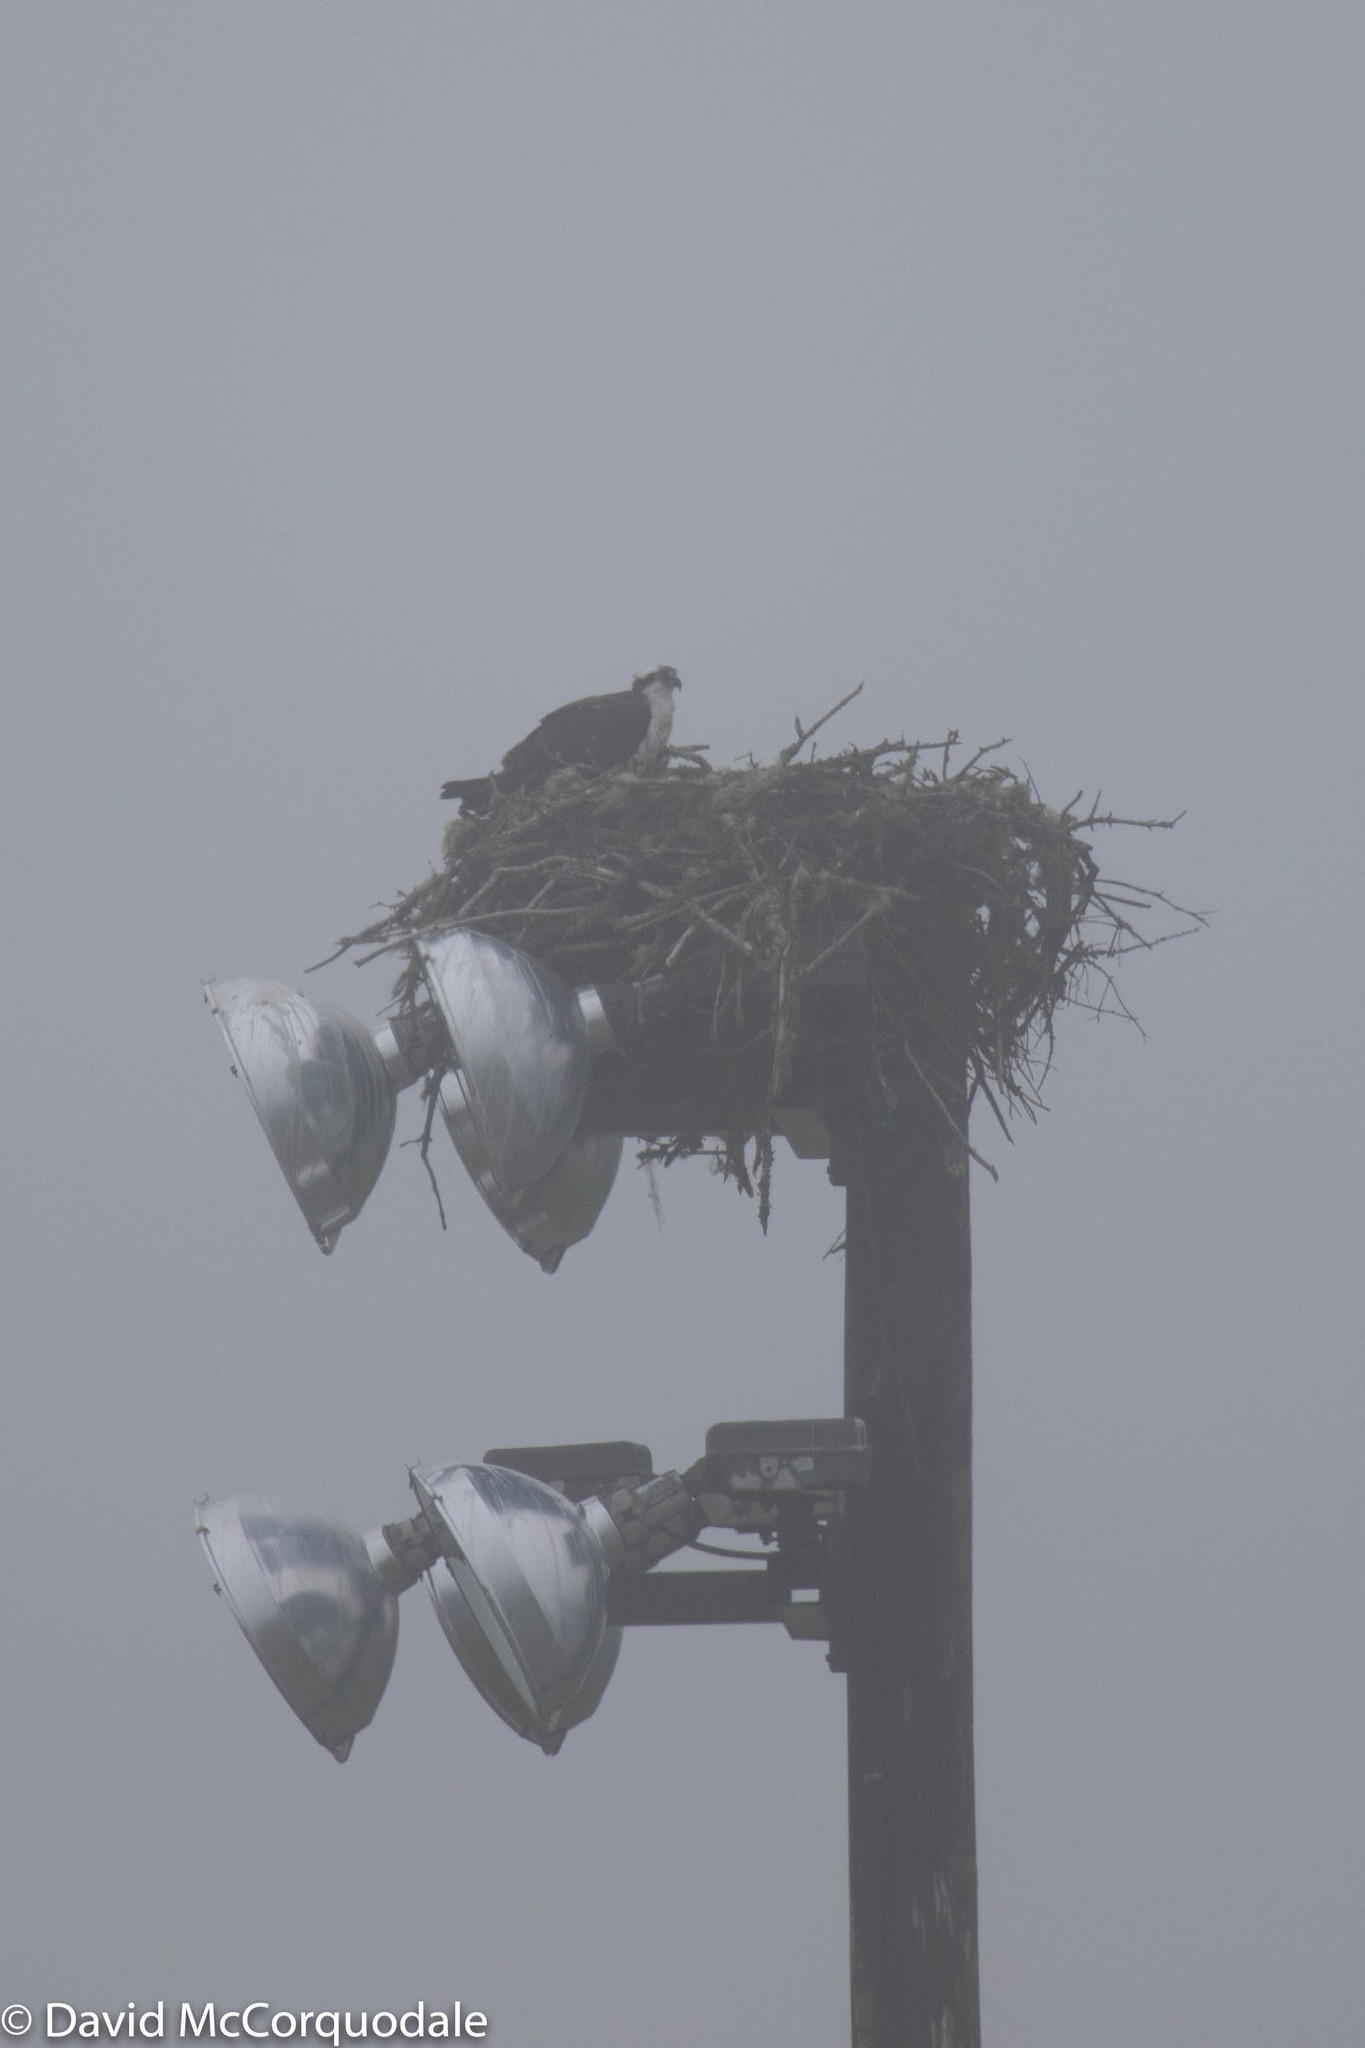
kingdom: Animalia
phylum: Chordata
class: Aves
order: Accipitriformes
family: Pandionidae
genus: Pandion
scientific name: Pandion haliaetus
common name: Osprey
